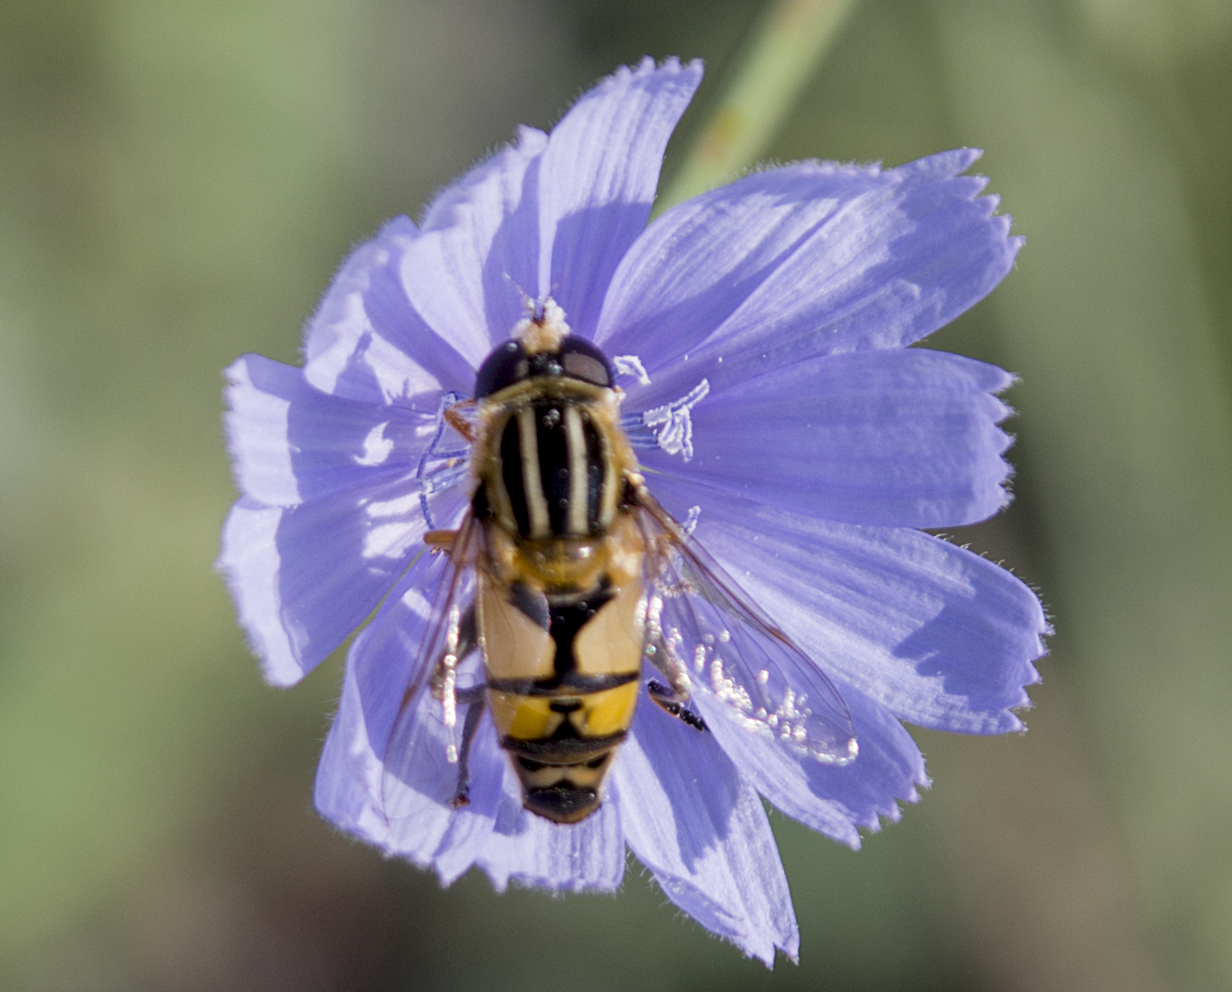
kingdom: Animalia
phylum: Arthropoda
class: Insecta
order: Diptera
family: Syrphidae
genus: Helophilus
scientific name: Helophilus trivittatus
